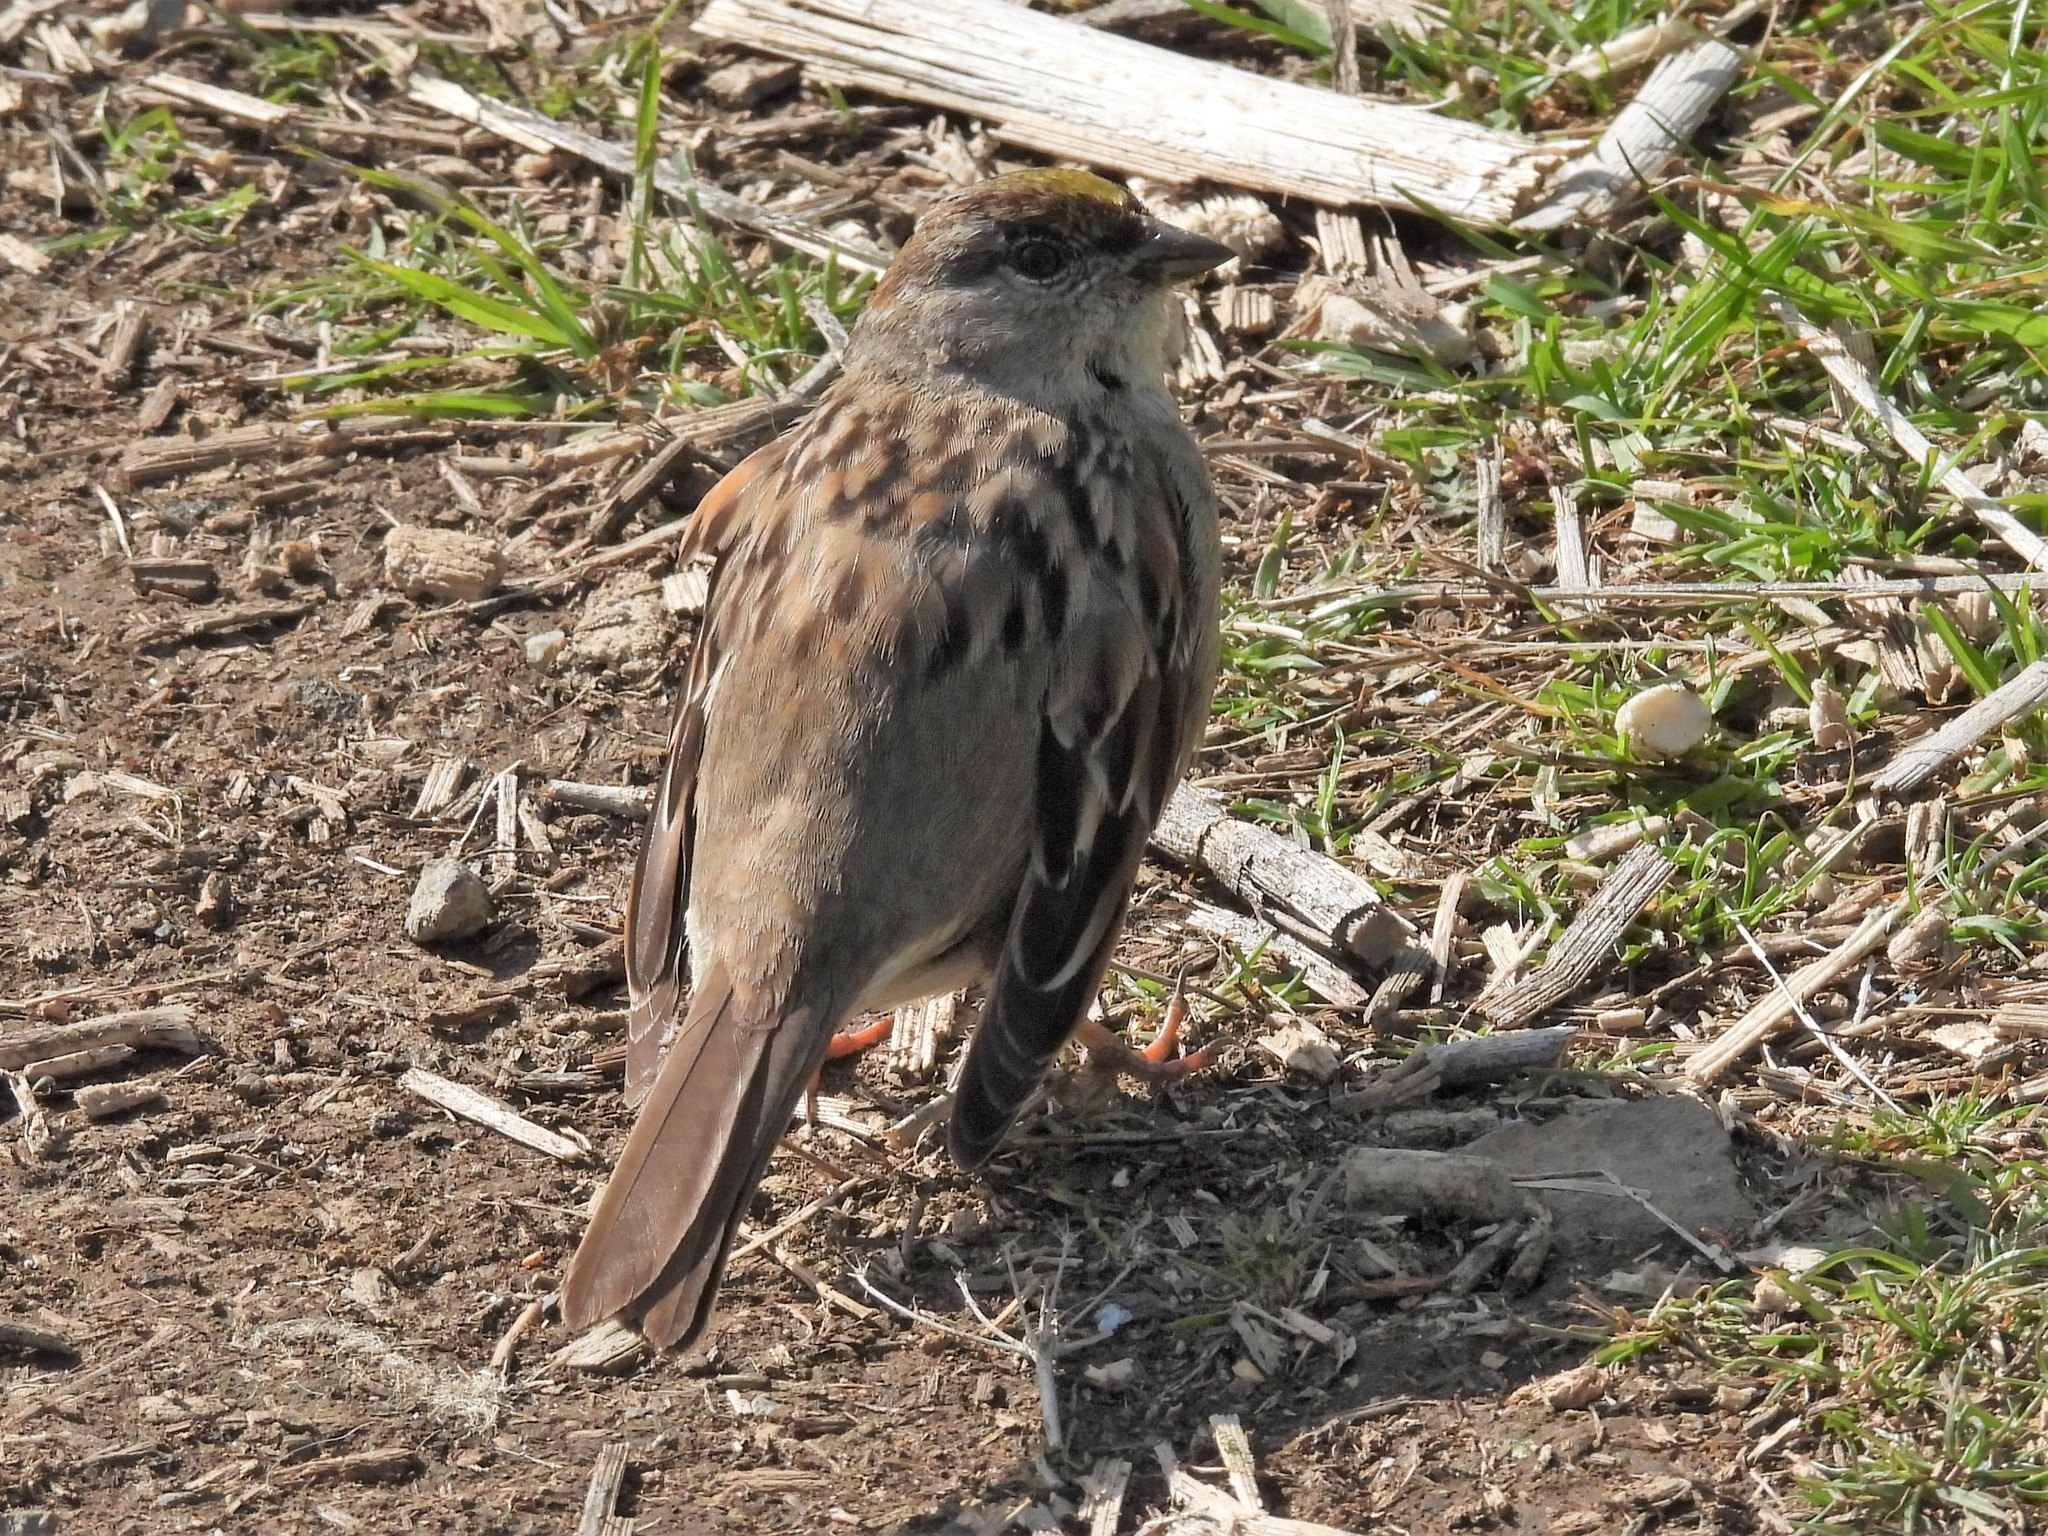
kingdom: Animalia
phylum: Chordata
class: Aves
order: Passeriformes
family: Passerellidae
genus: Zonotrichia
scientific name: Zonotrichia atricapilla
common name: Golden-crowned sparrow
